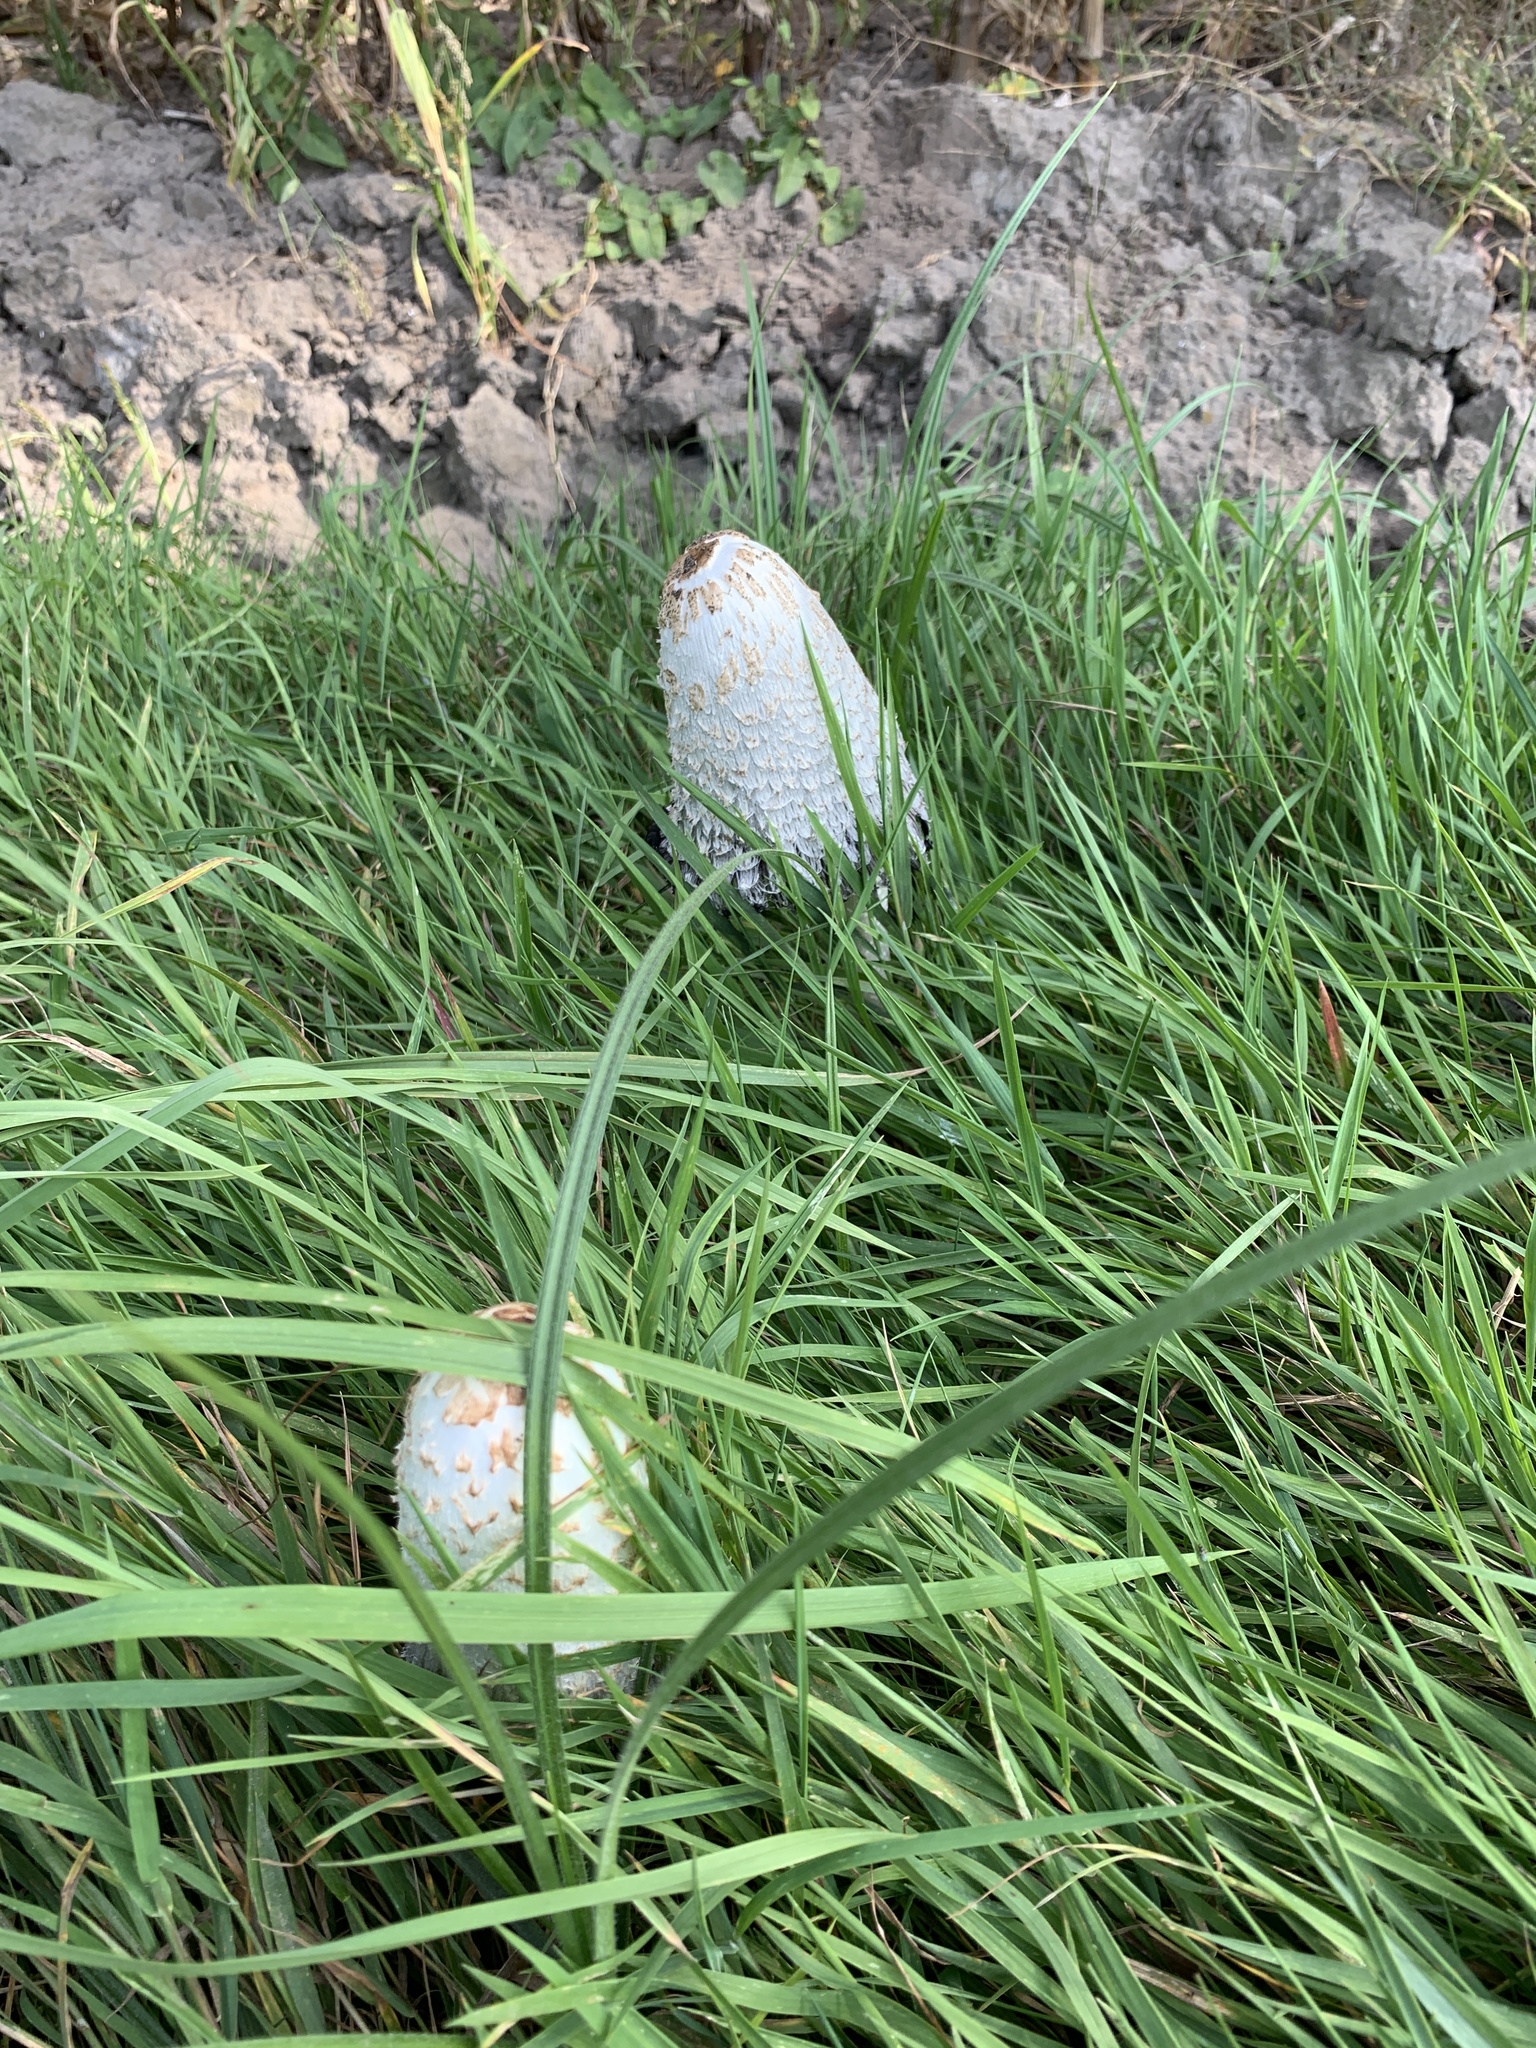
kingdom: Fungi
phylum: Basidiomycota
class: Agaricomycetes
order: Agaricales
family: Agaricaceae
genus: Coprinus
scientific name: Coprinus comatus
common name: Lawyer's wig
